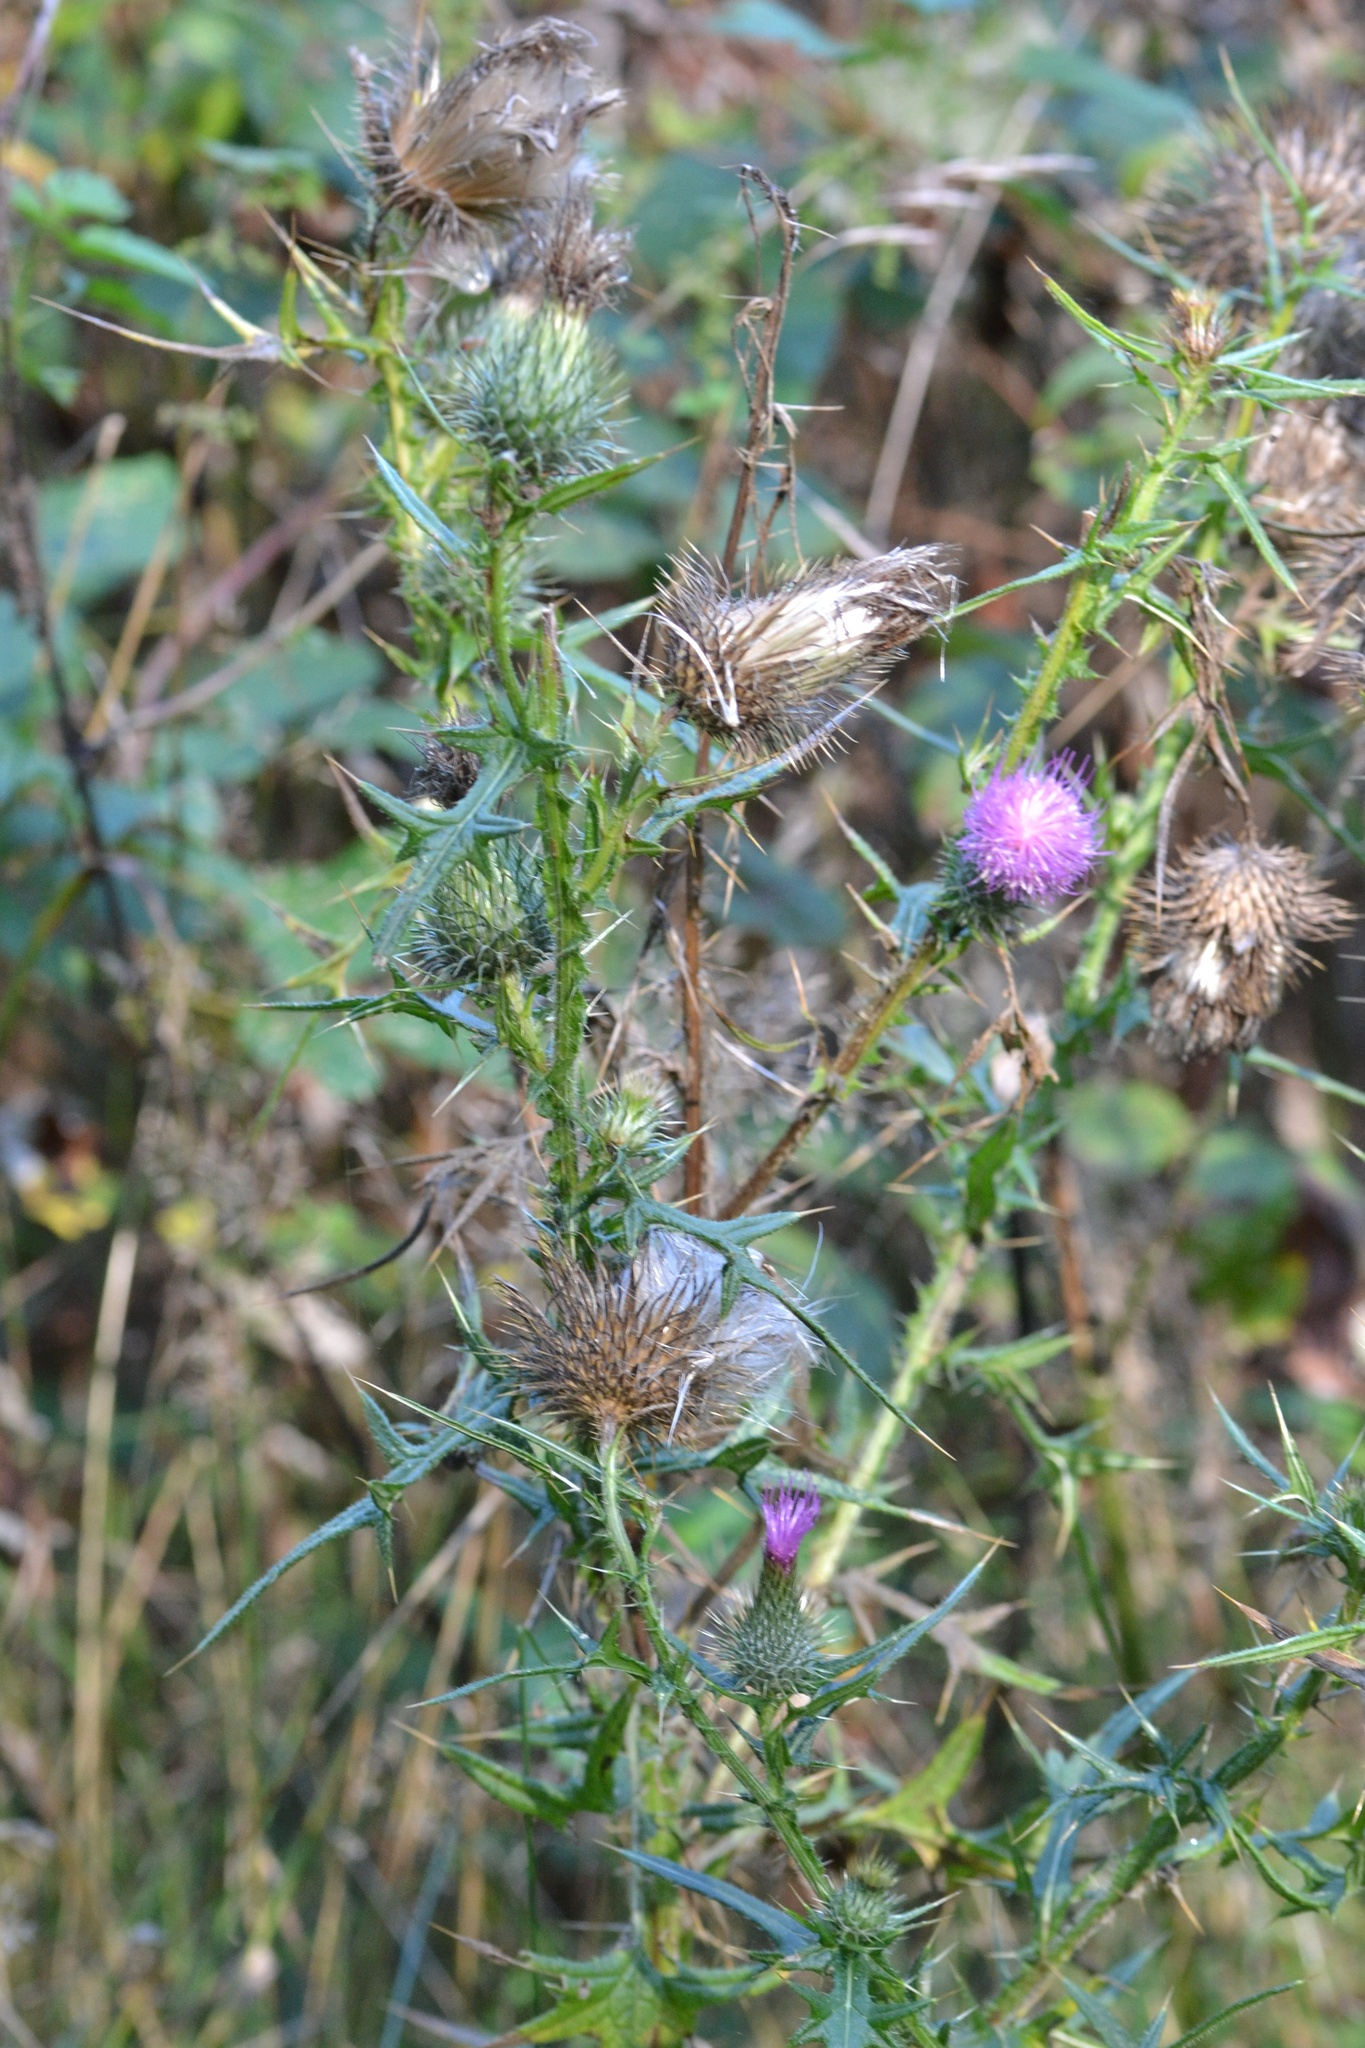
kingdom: Plantae
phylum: Tracheophyta
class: Magnoliopsida
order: Asterales
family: Asteraceae
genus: Cirsium
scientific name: Cirsium vulgare
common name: Bull thistle
